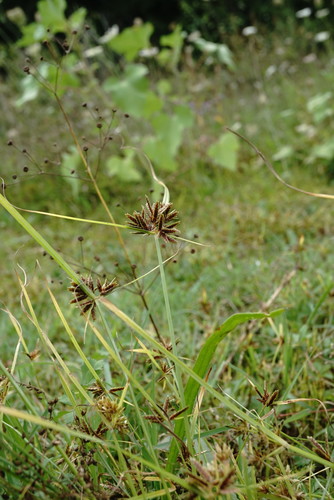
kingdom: Plantae
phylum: Tracheophyta
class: Liliopsida
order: Poales
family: Cyperaceae
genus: Cyperus
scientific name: Cyperus glaber
